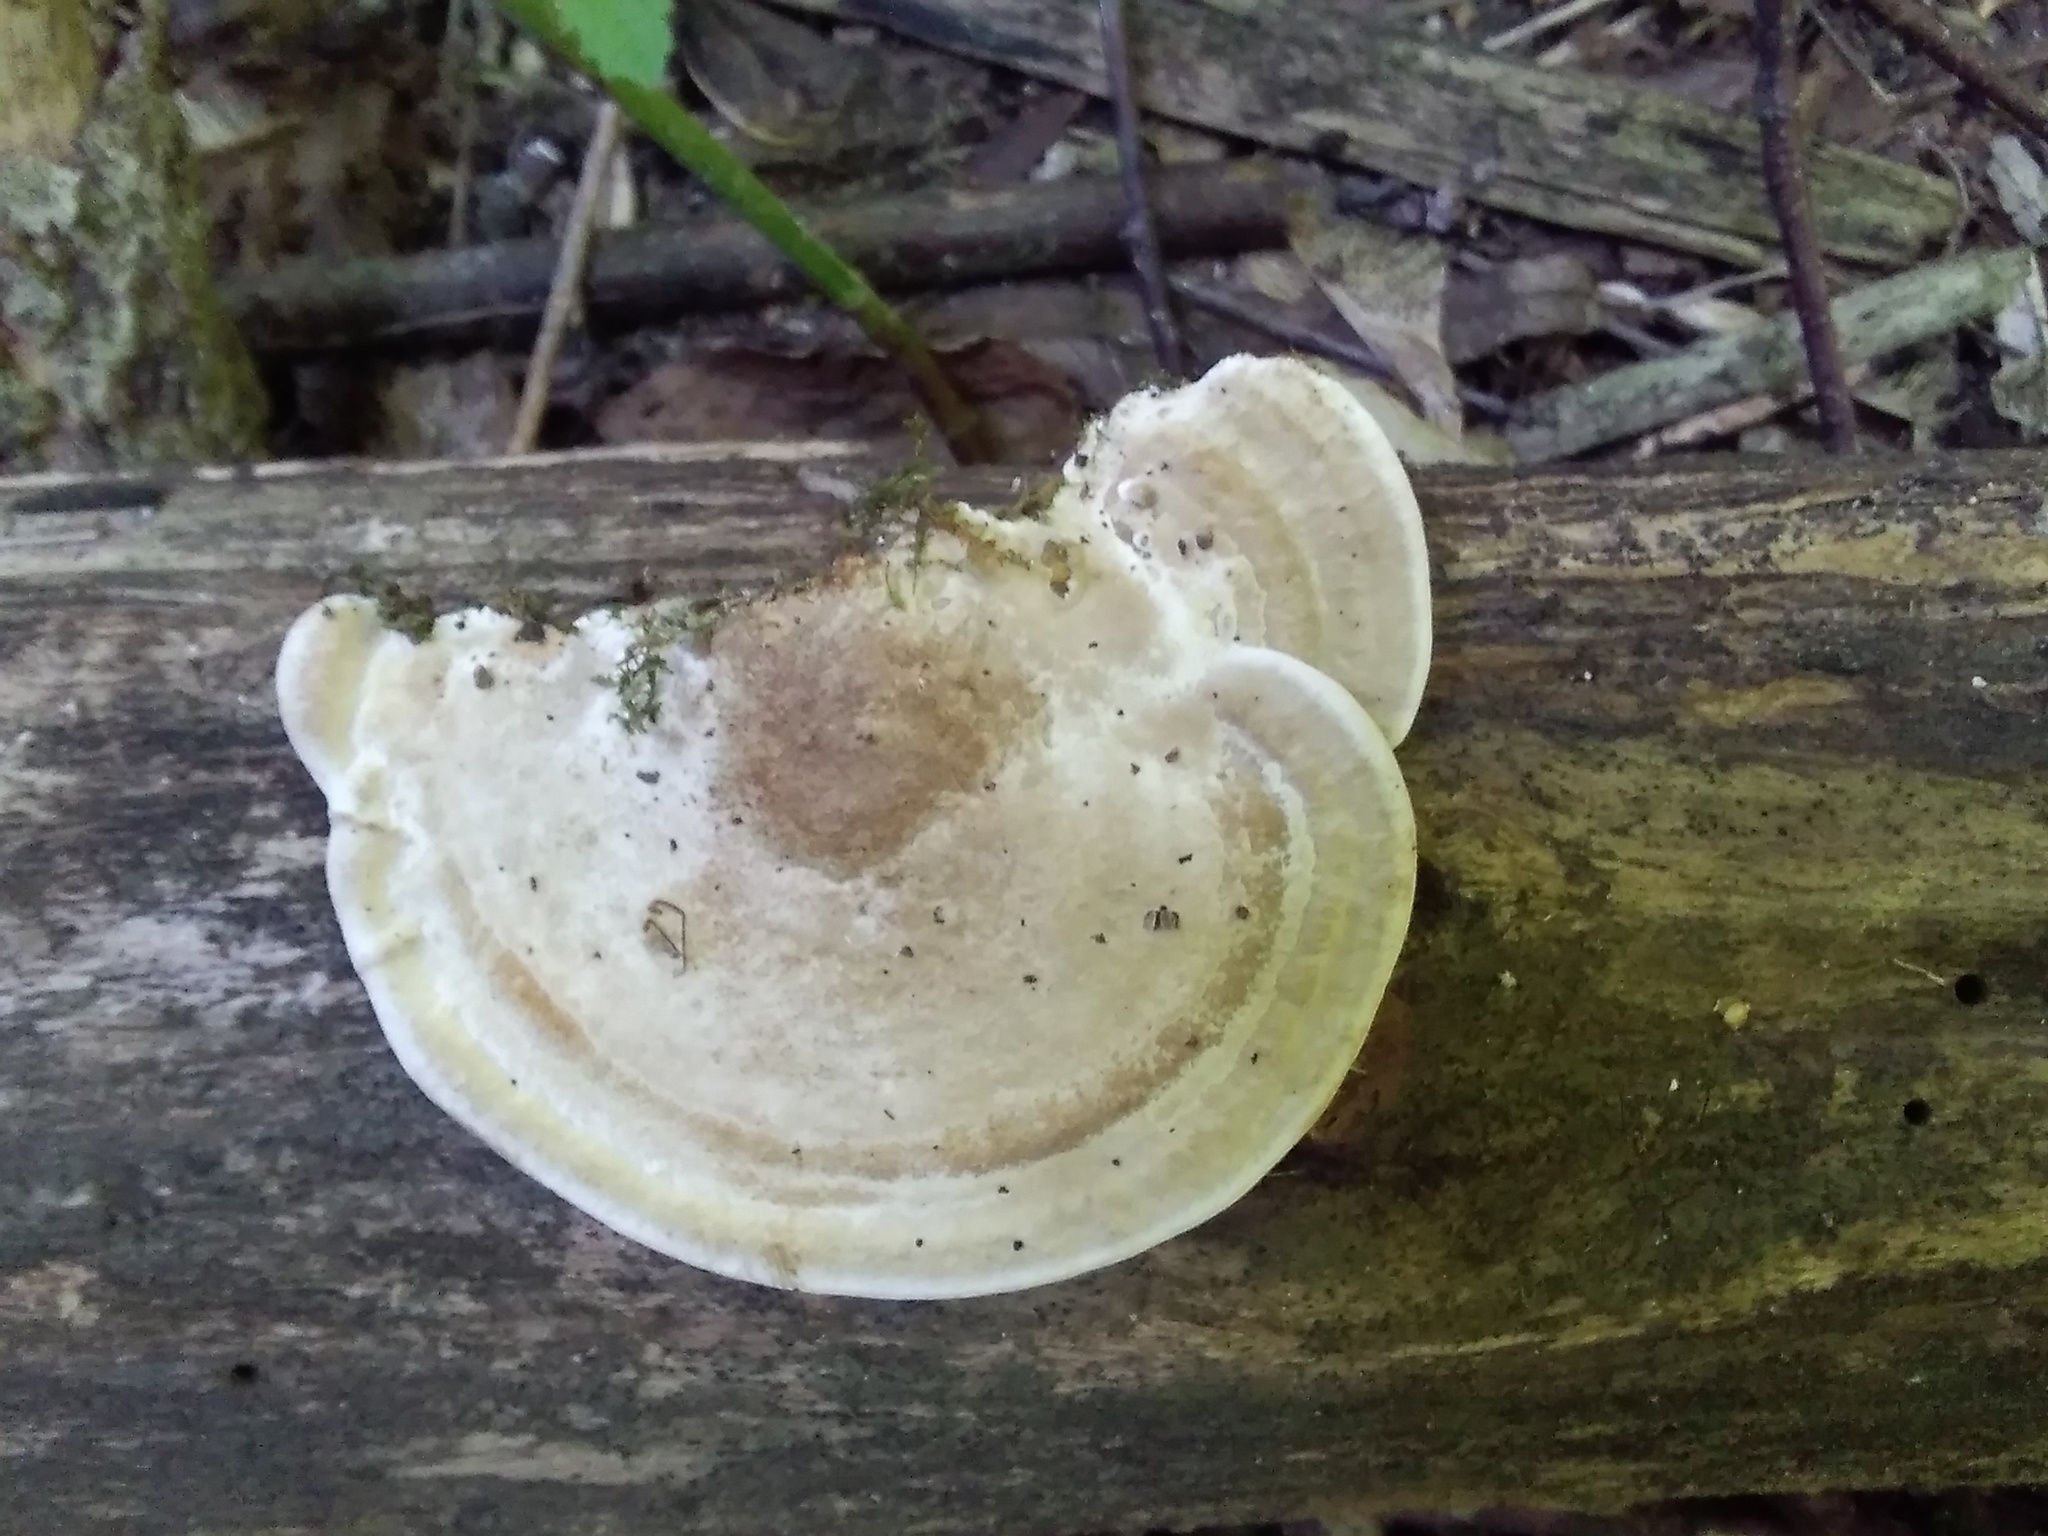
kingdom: Fungi
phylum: Basidiomycota
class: Agaricomycetes
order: Polyporales
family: Polyporaceae
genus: Trametes
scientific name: Trametes gibbosa
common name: Lumpy bracket
